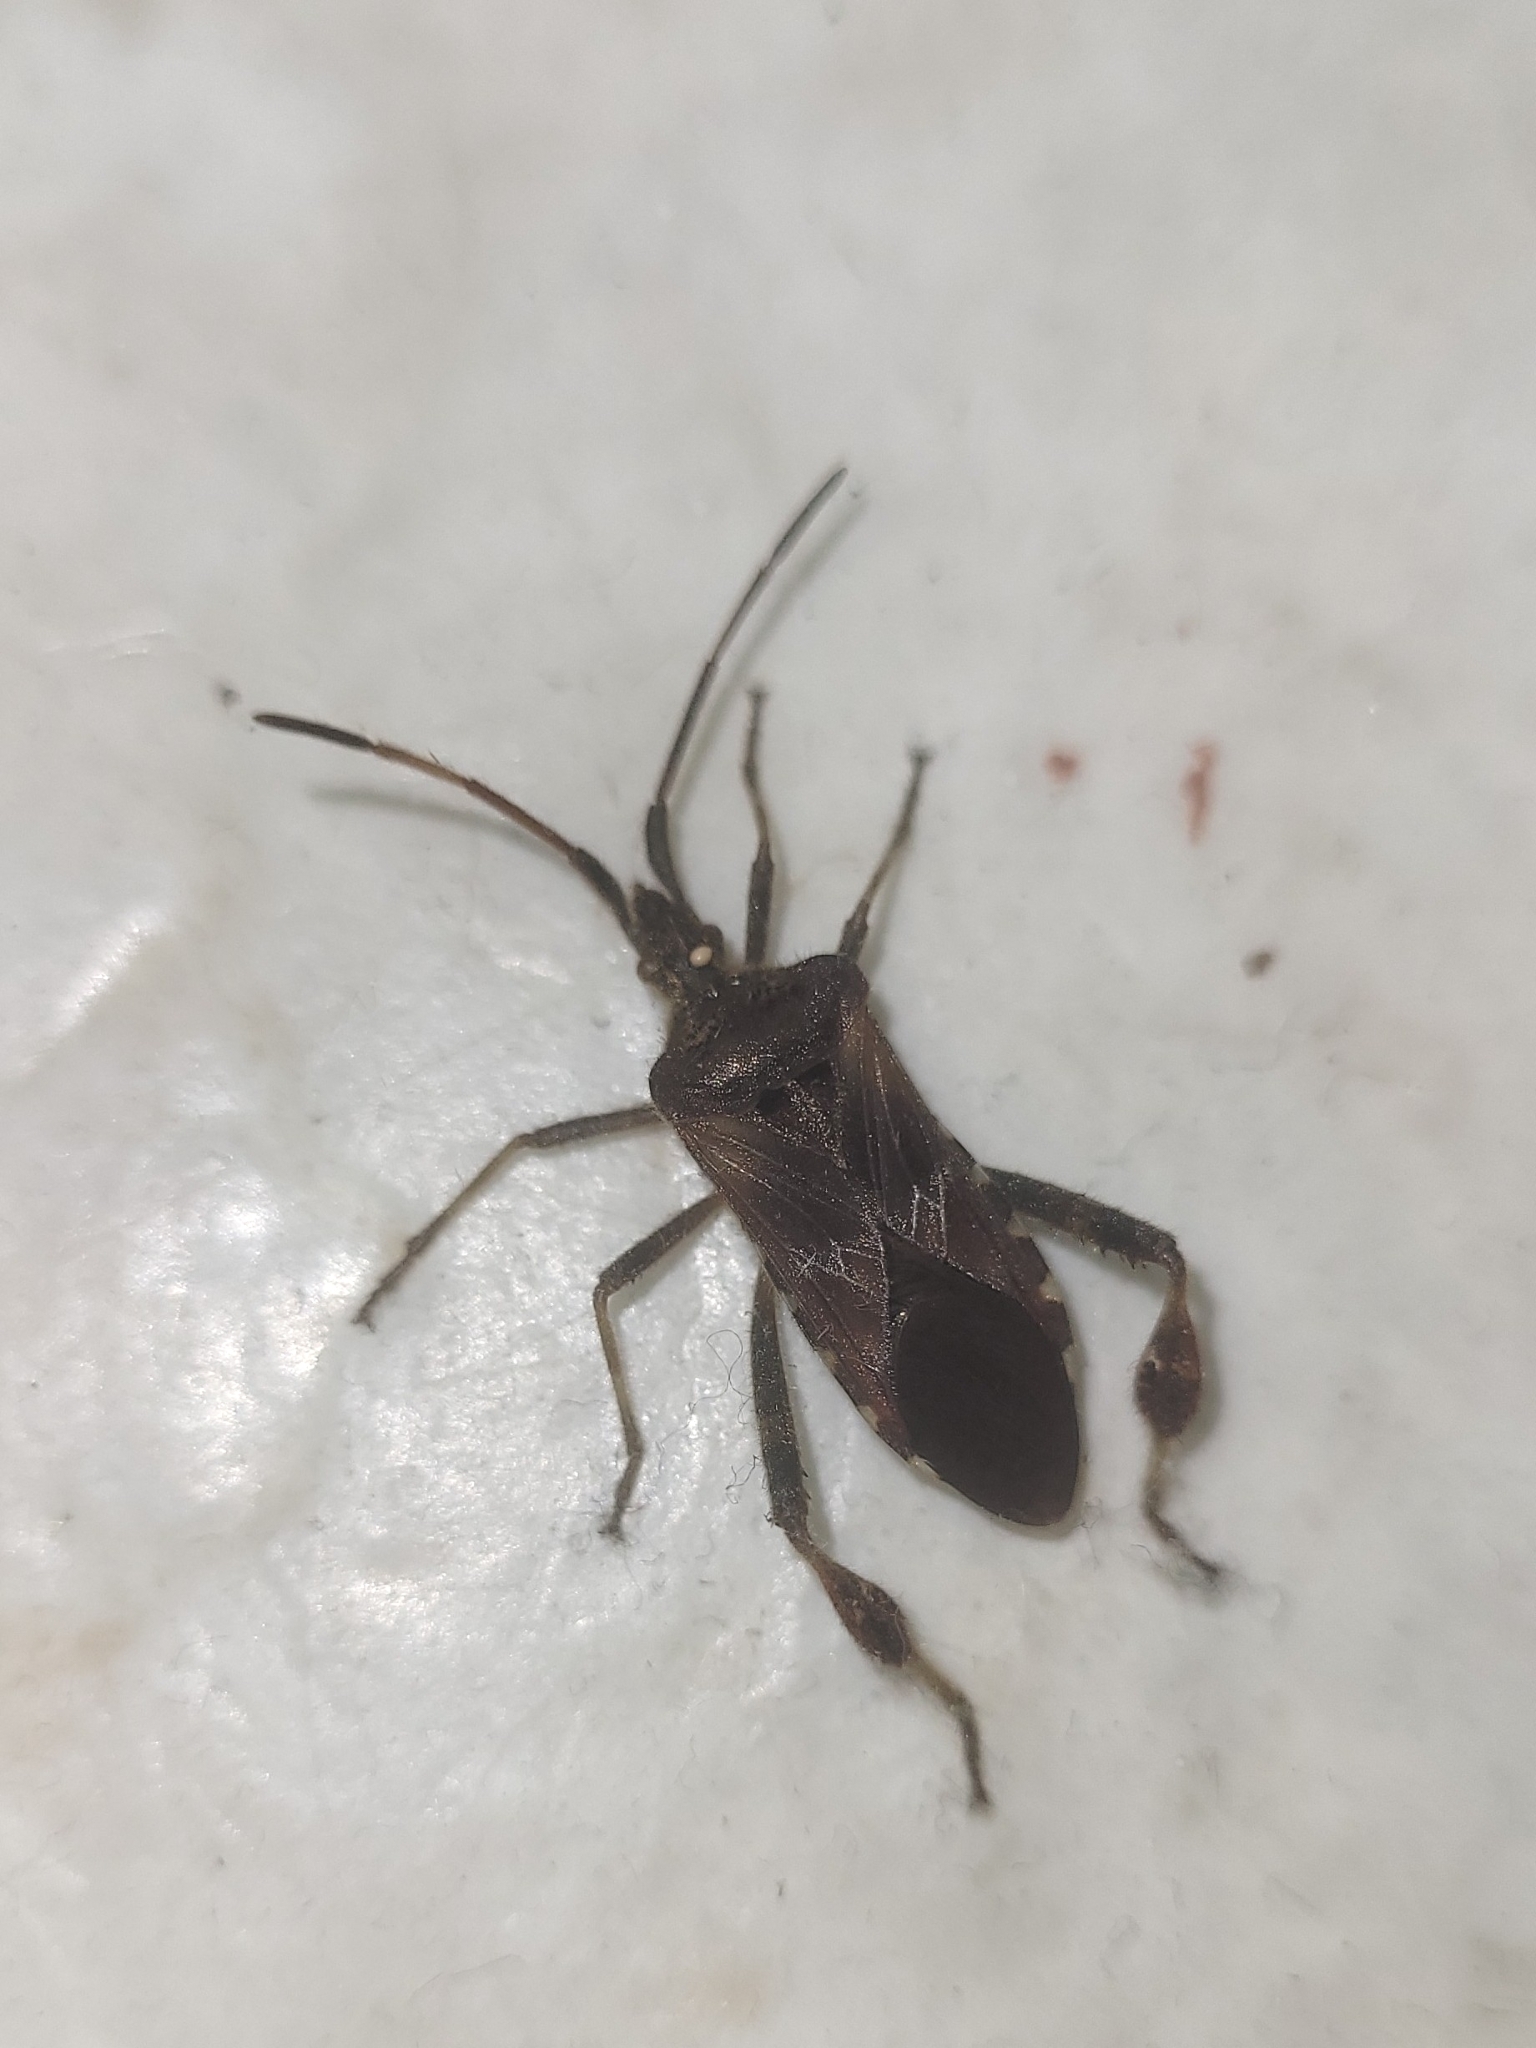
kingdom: Animalia
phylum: Arthropoda
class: Insecta
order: Hemiptera
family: Coreidae
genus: Leptoglossus
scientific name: Leptoglossus occidentalis
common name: Western conifer-seed bug
